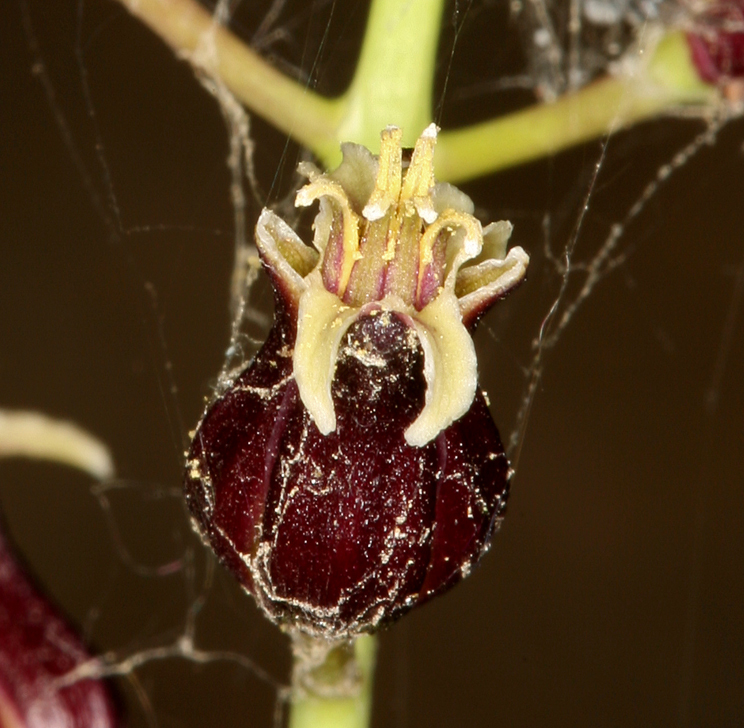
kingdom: Plantae
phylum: Tracheophyta
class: Magnoliopsida
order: Brassicales
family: Brassicaceae
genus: Streptanthus
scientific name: Streptanthus pilosus
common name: Chocolate drops
